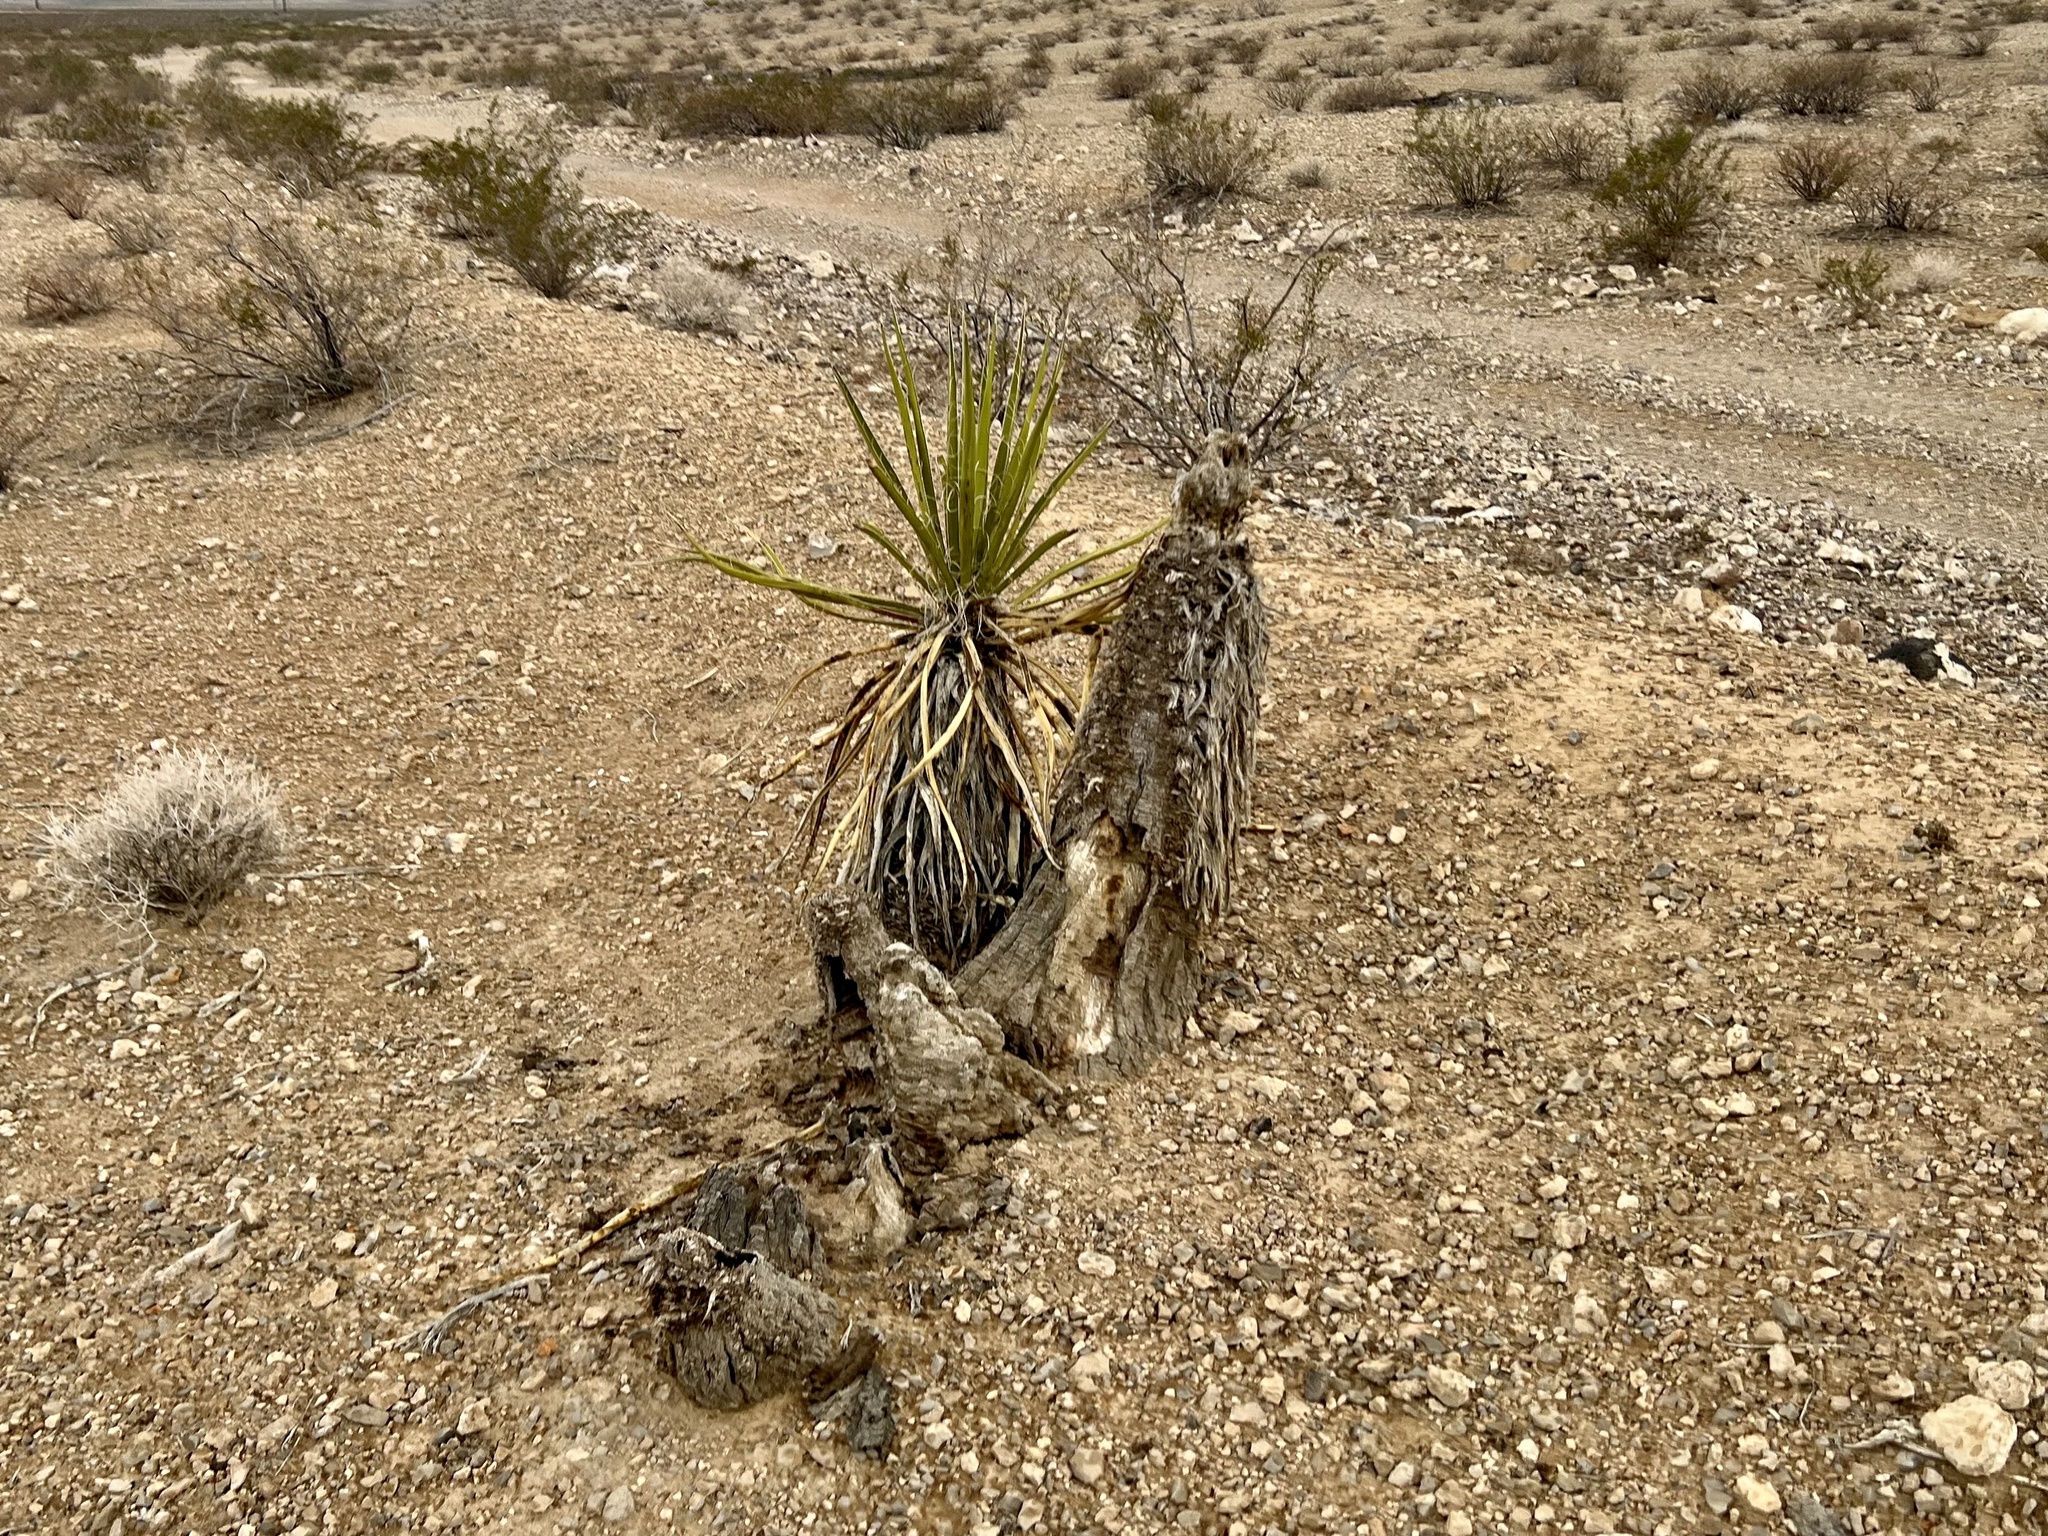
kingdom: Plantae
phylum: Tracheophyta
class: Liliopsida
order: Asparagales
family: Asparagaceae
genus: Yucca
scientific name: Yucca schidigera
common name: Mojave yucca
